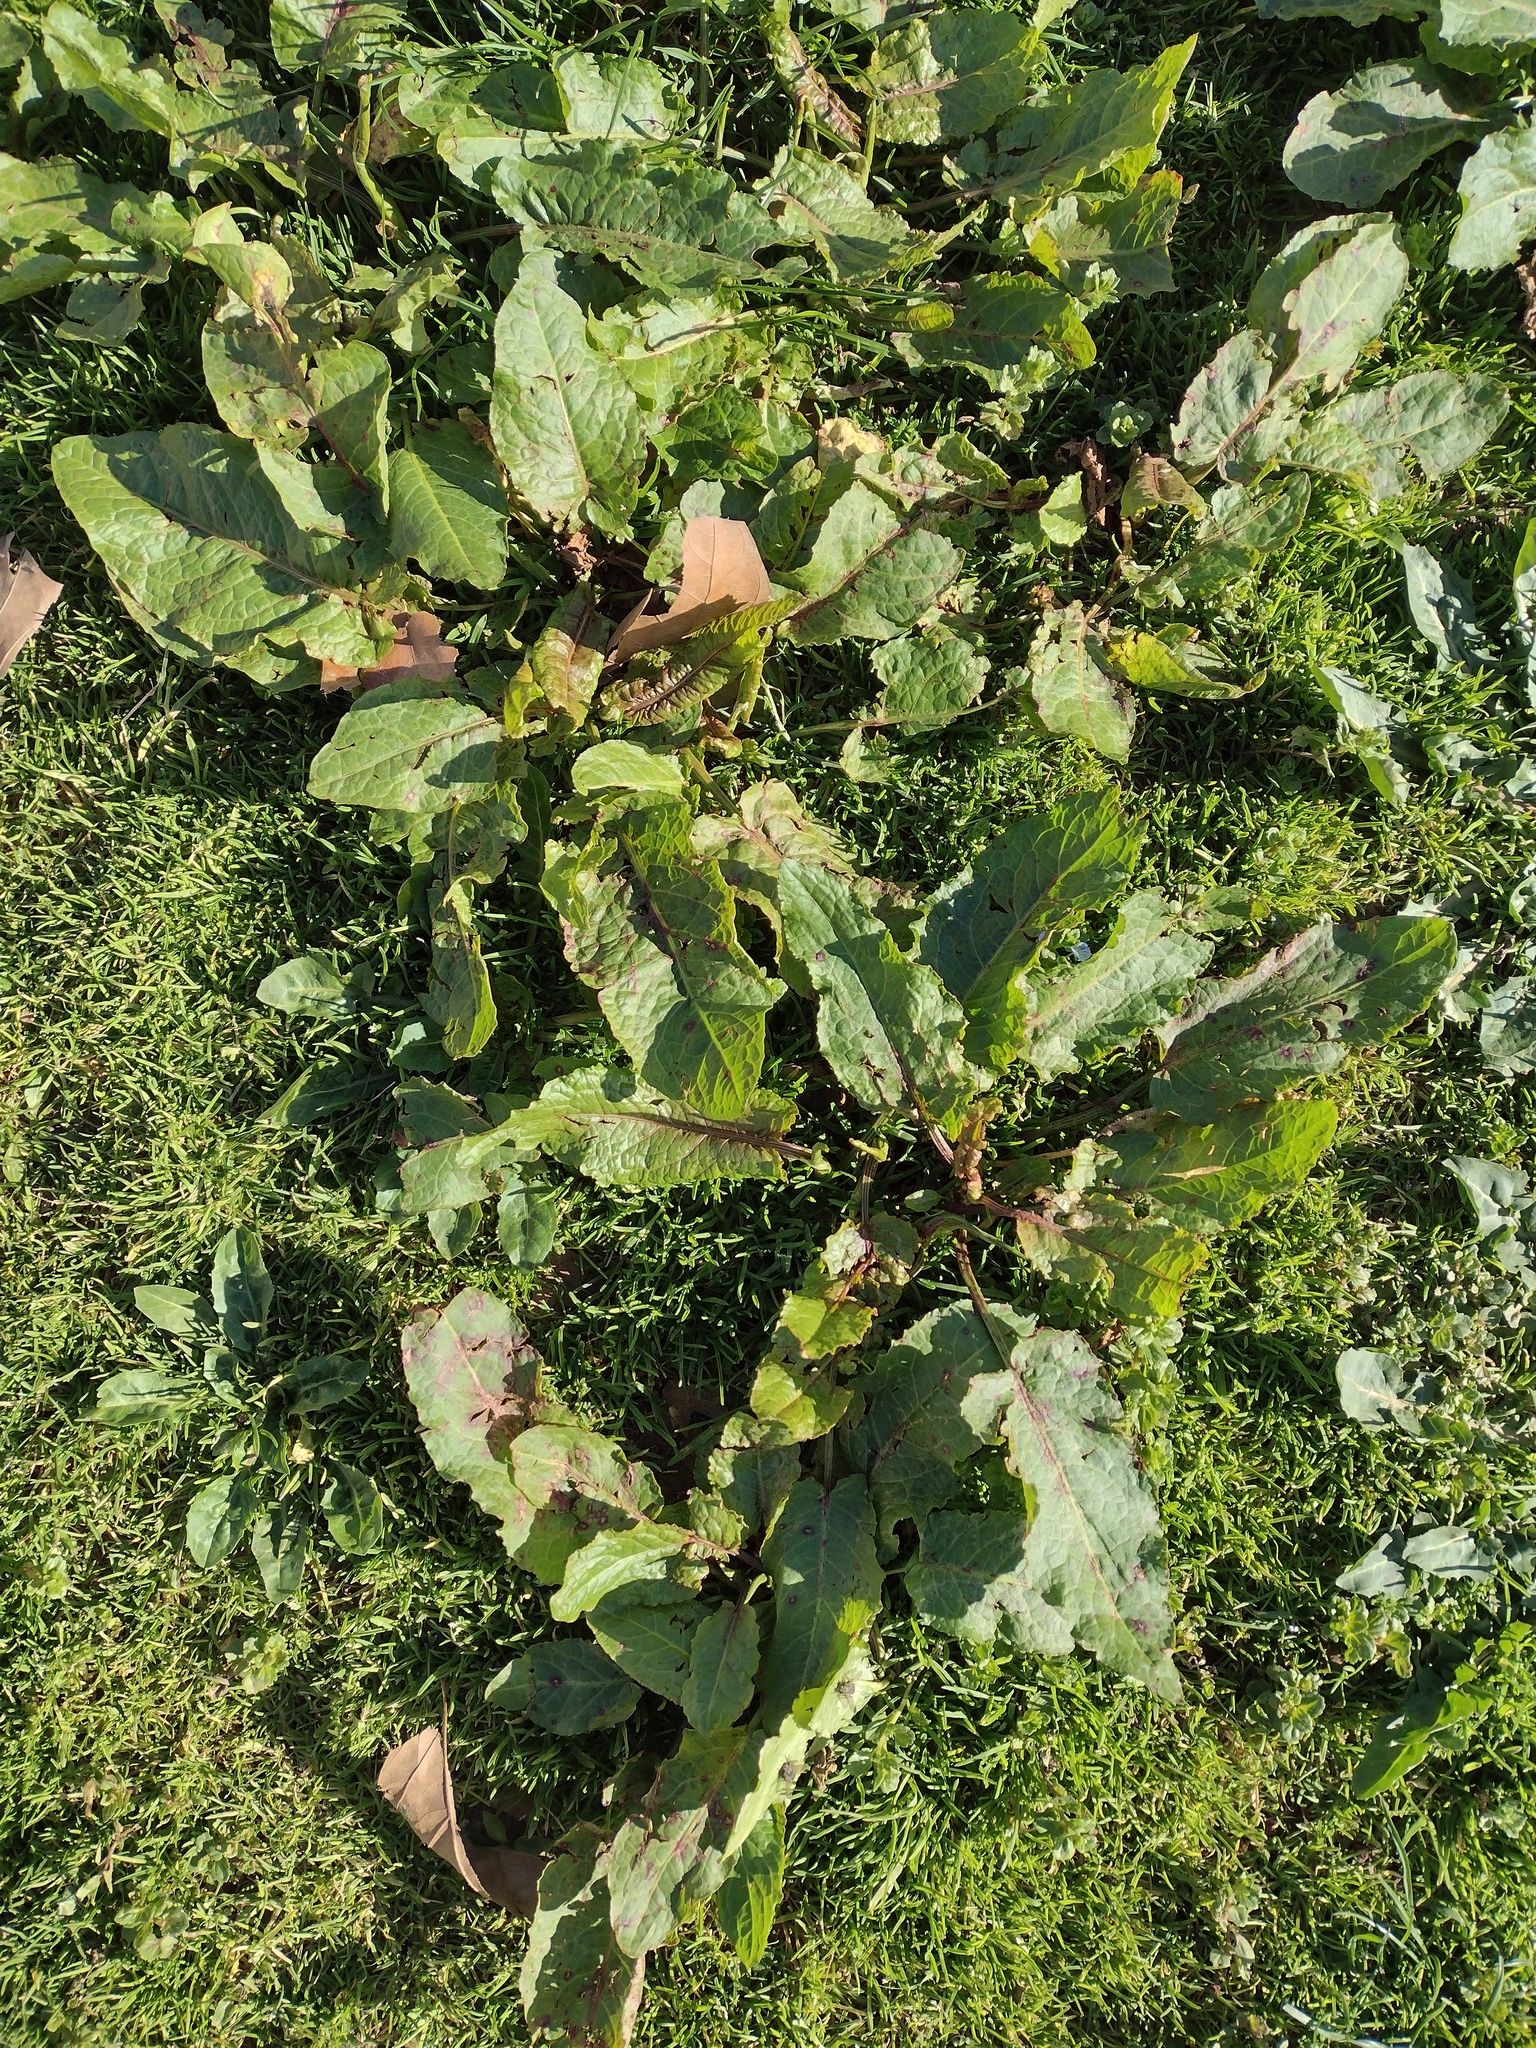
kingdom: Plantae
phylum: Tracheophyta
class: Magnoliopsida
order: Caryophyllales
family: Polygonaceae
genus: Rumex
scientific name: Rumex obtusifolius
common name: Bitter dock
